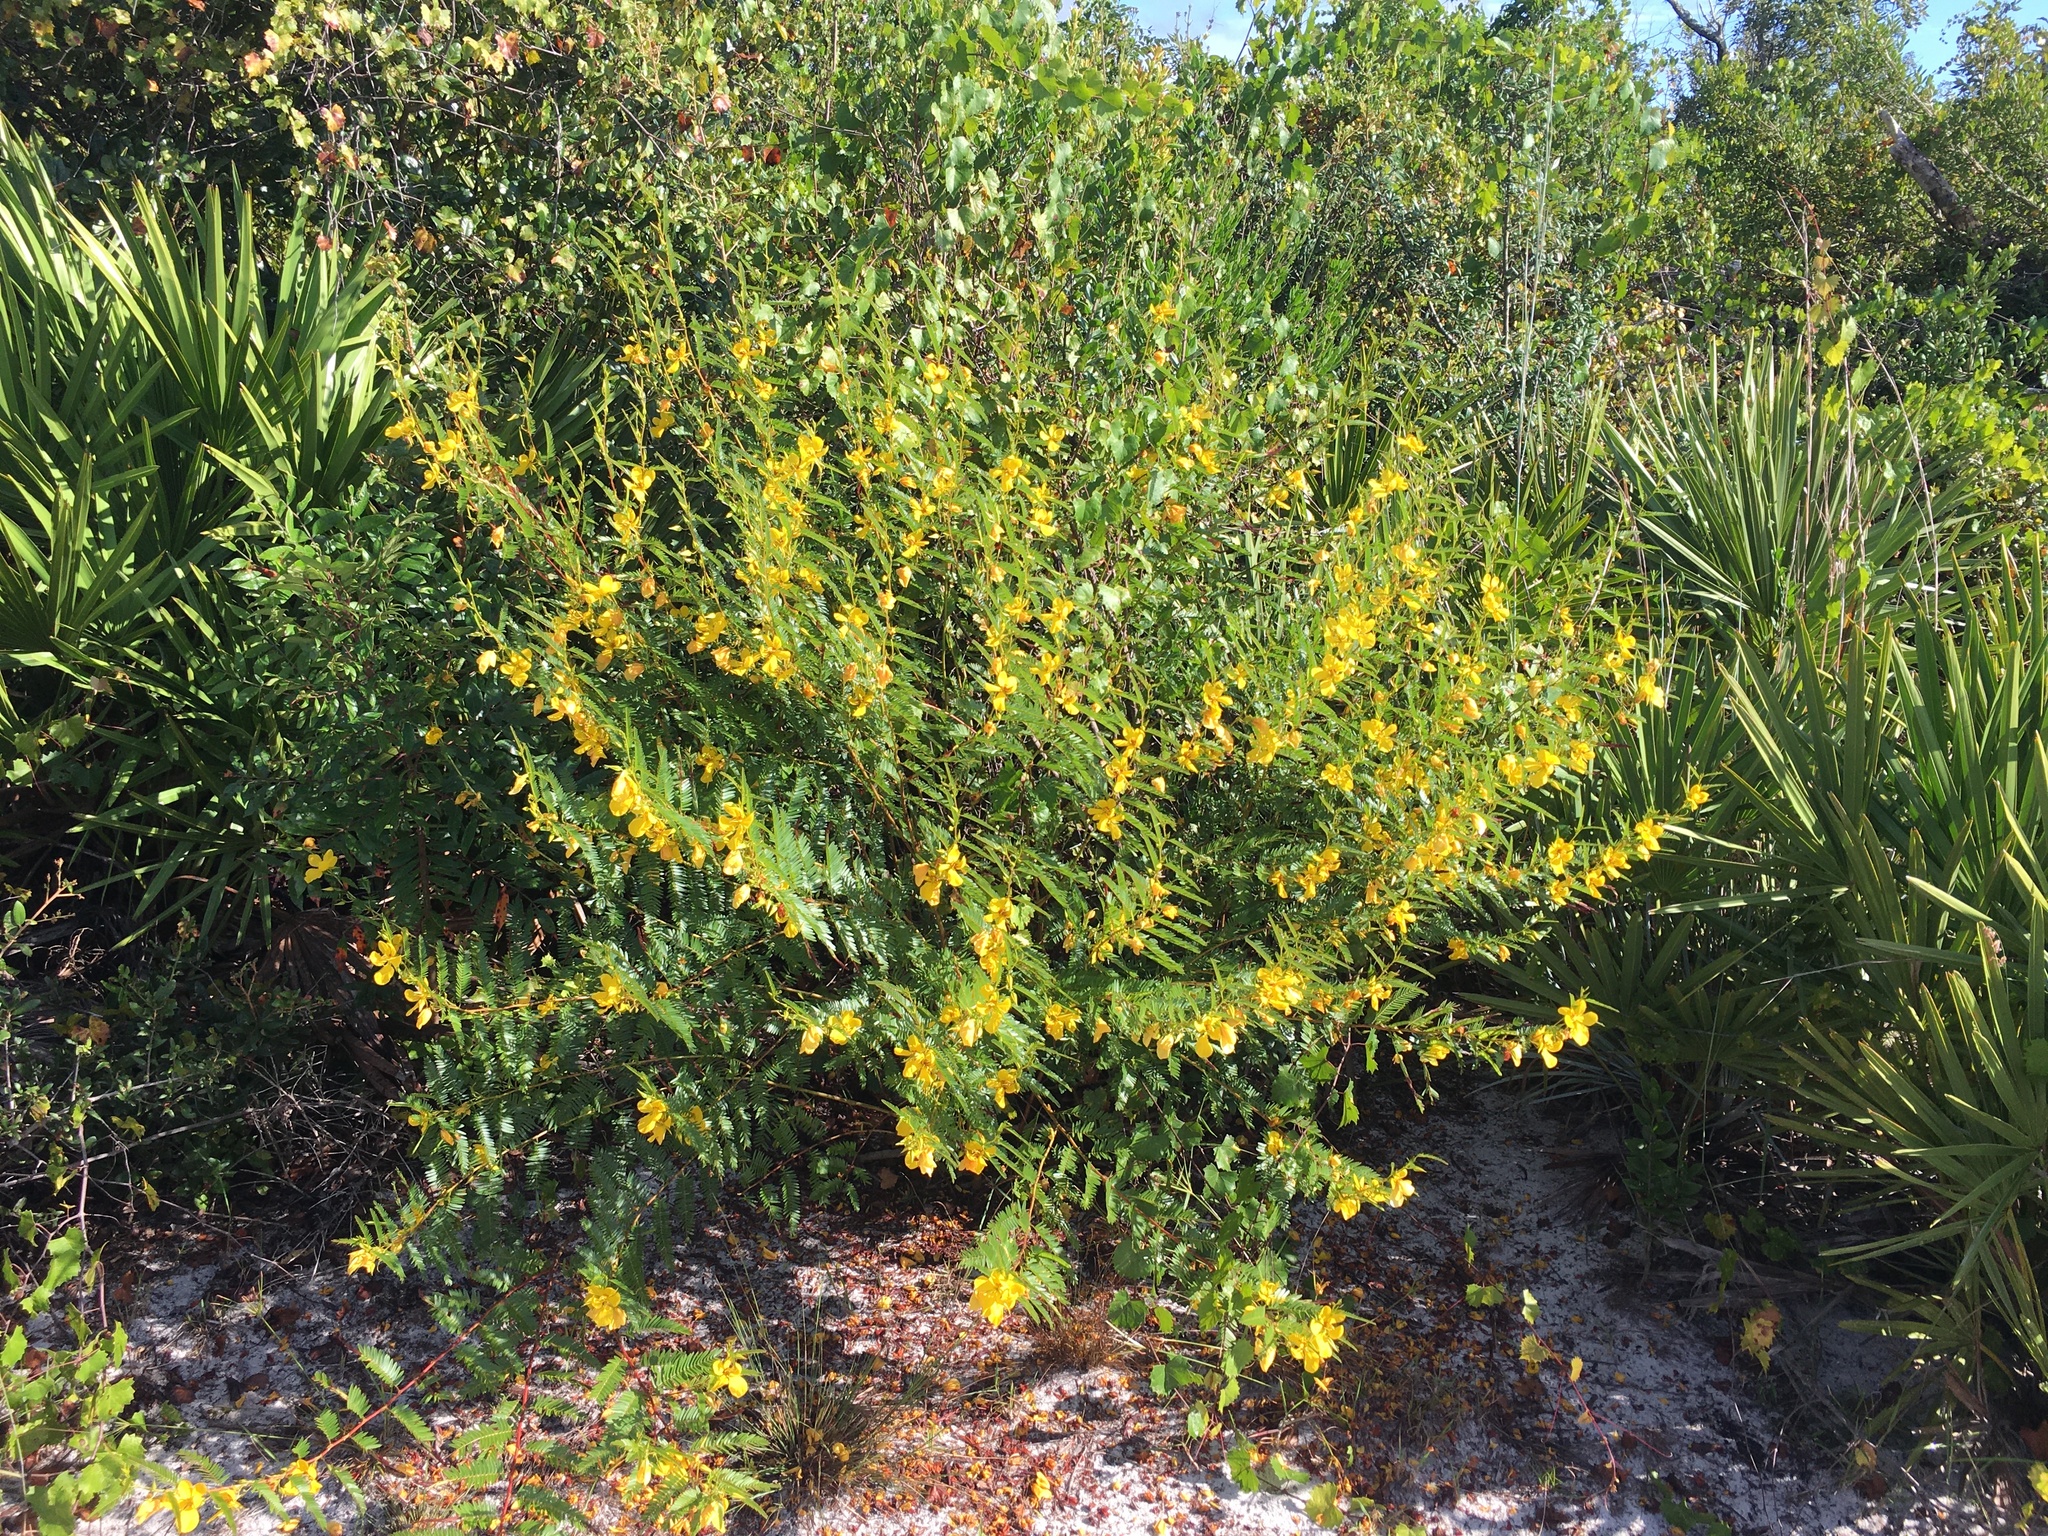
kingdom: Plantae
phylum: Tracheophyta
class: Magnoliopsida
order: Fabales
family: Fabaceae
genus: Chamaecrista
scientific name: Chamaecrista fasciculata
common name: Golden cassia
